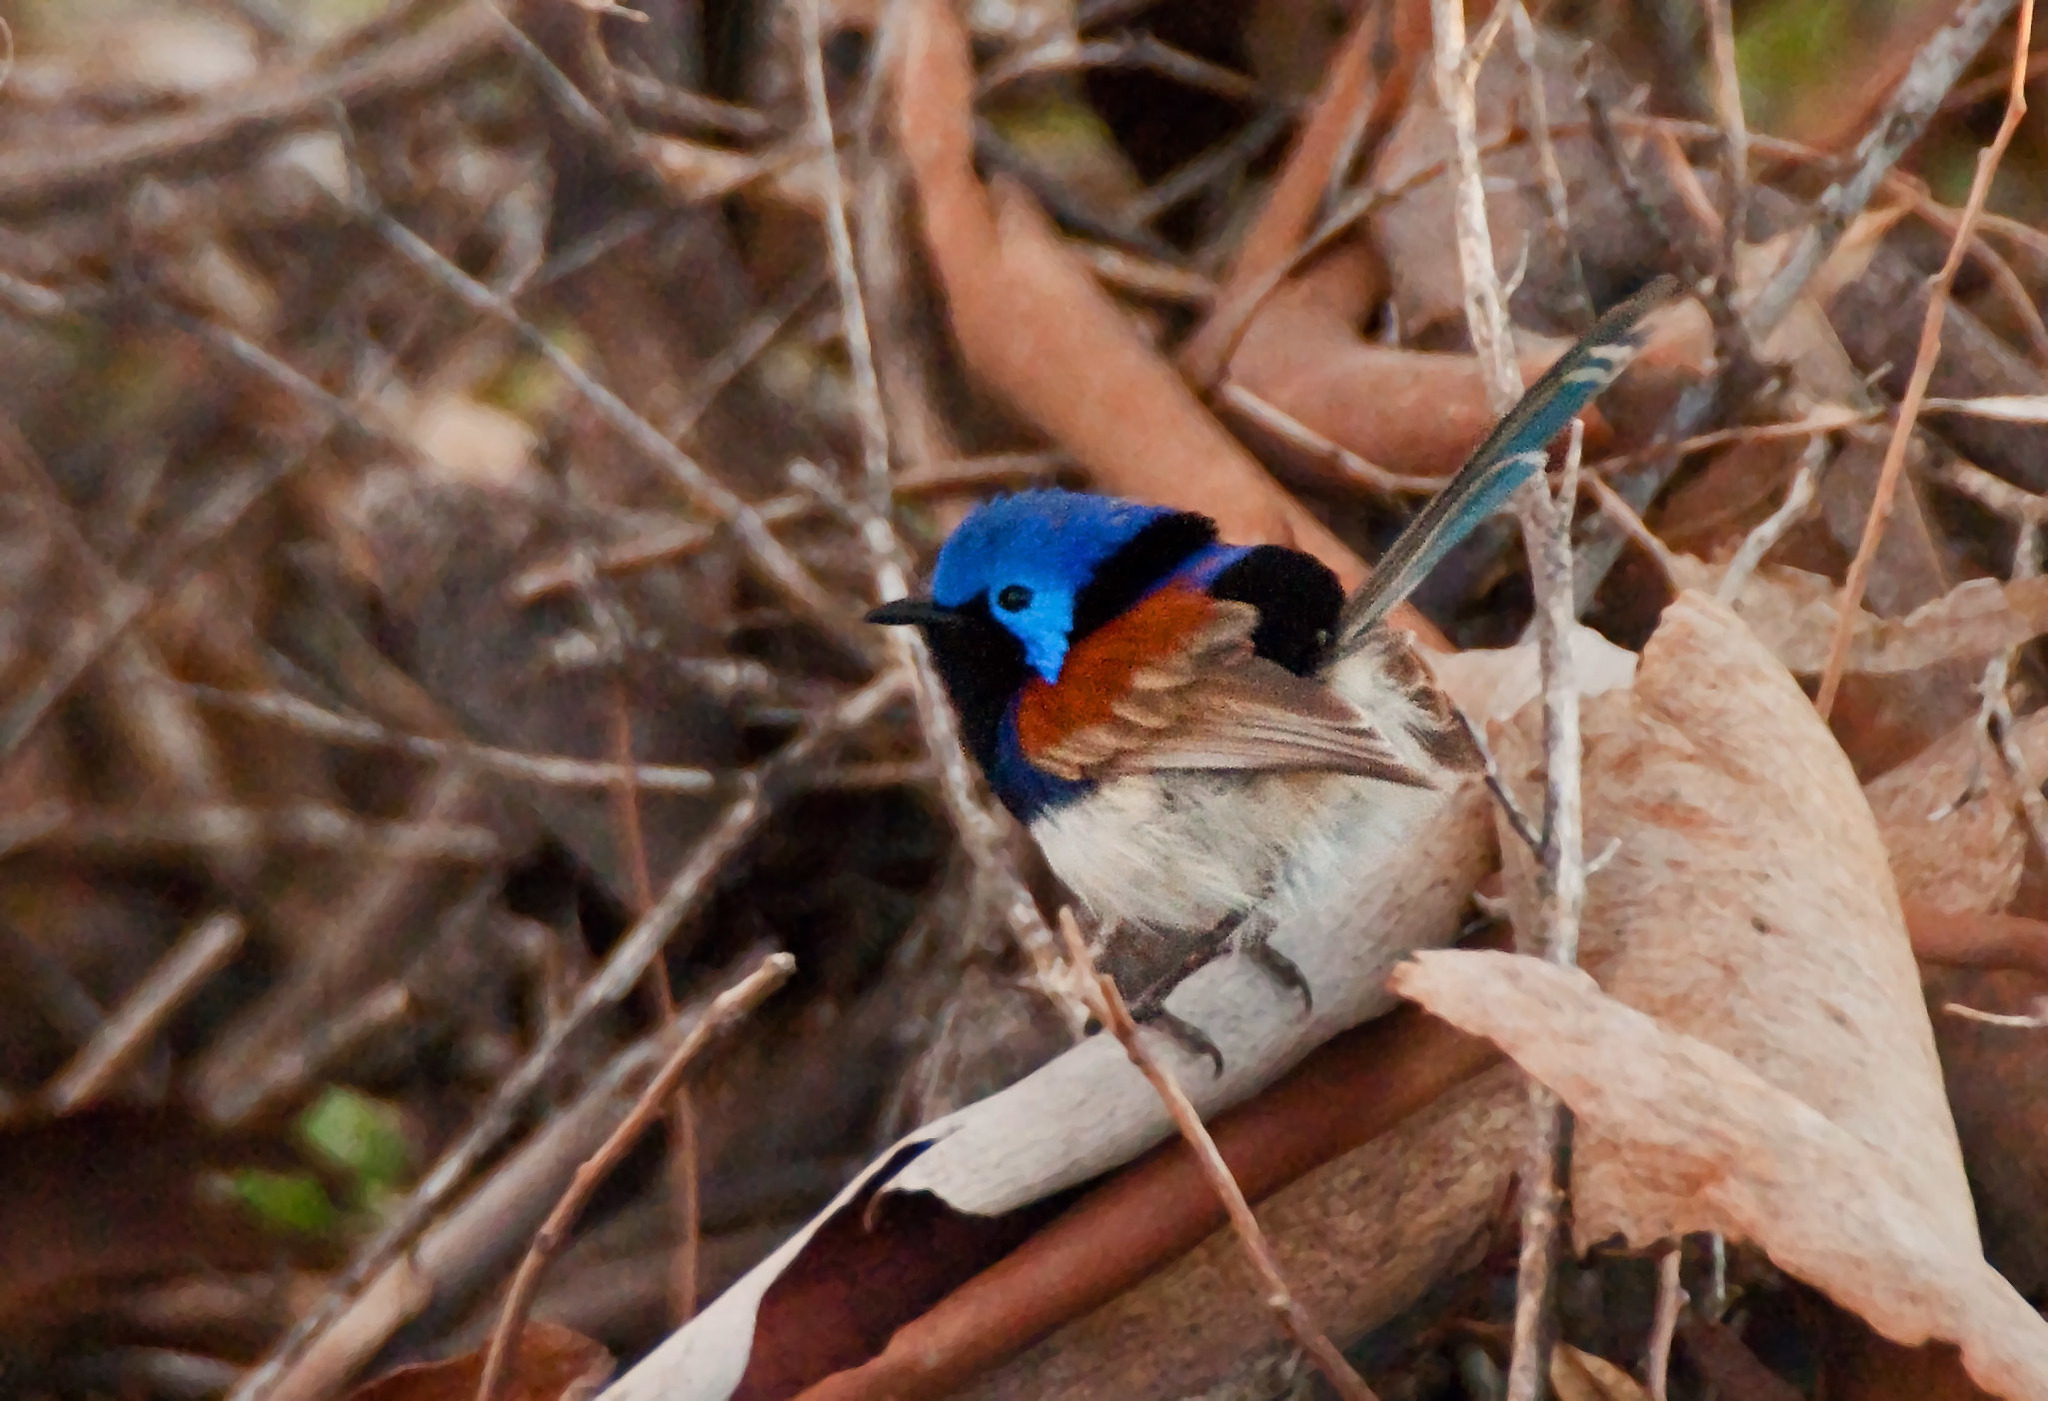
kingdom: Animalia
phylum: Chordata
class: Aves
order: Passeriformes
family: Maluridae
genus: Malurus
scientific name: Malurus assimilis
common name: Purple-backed fairywren
